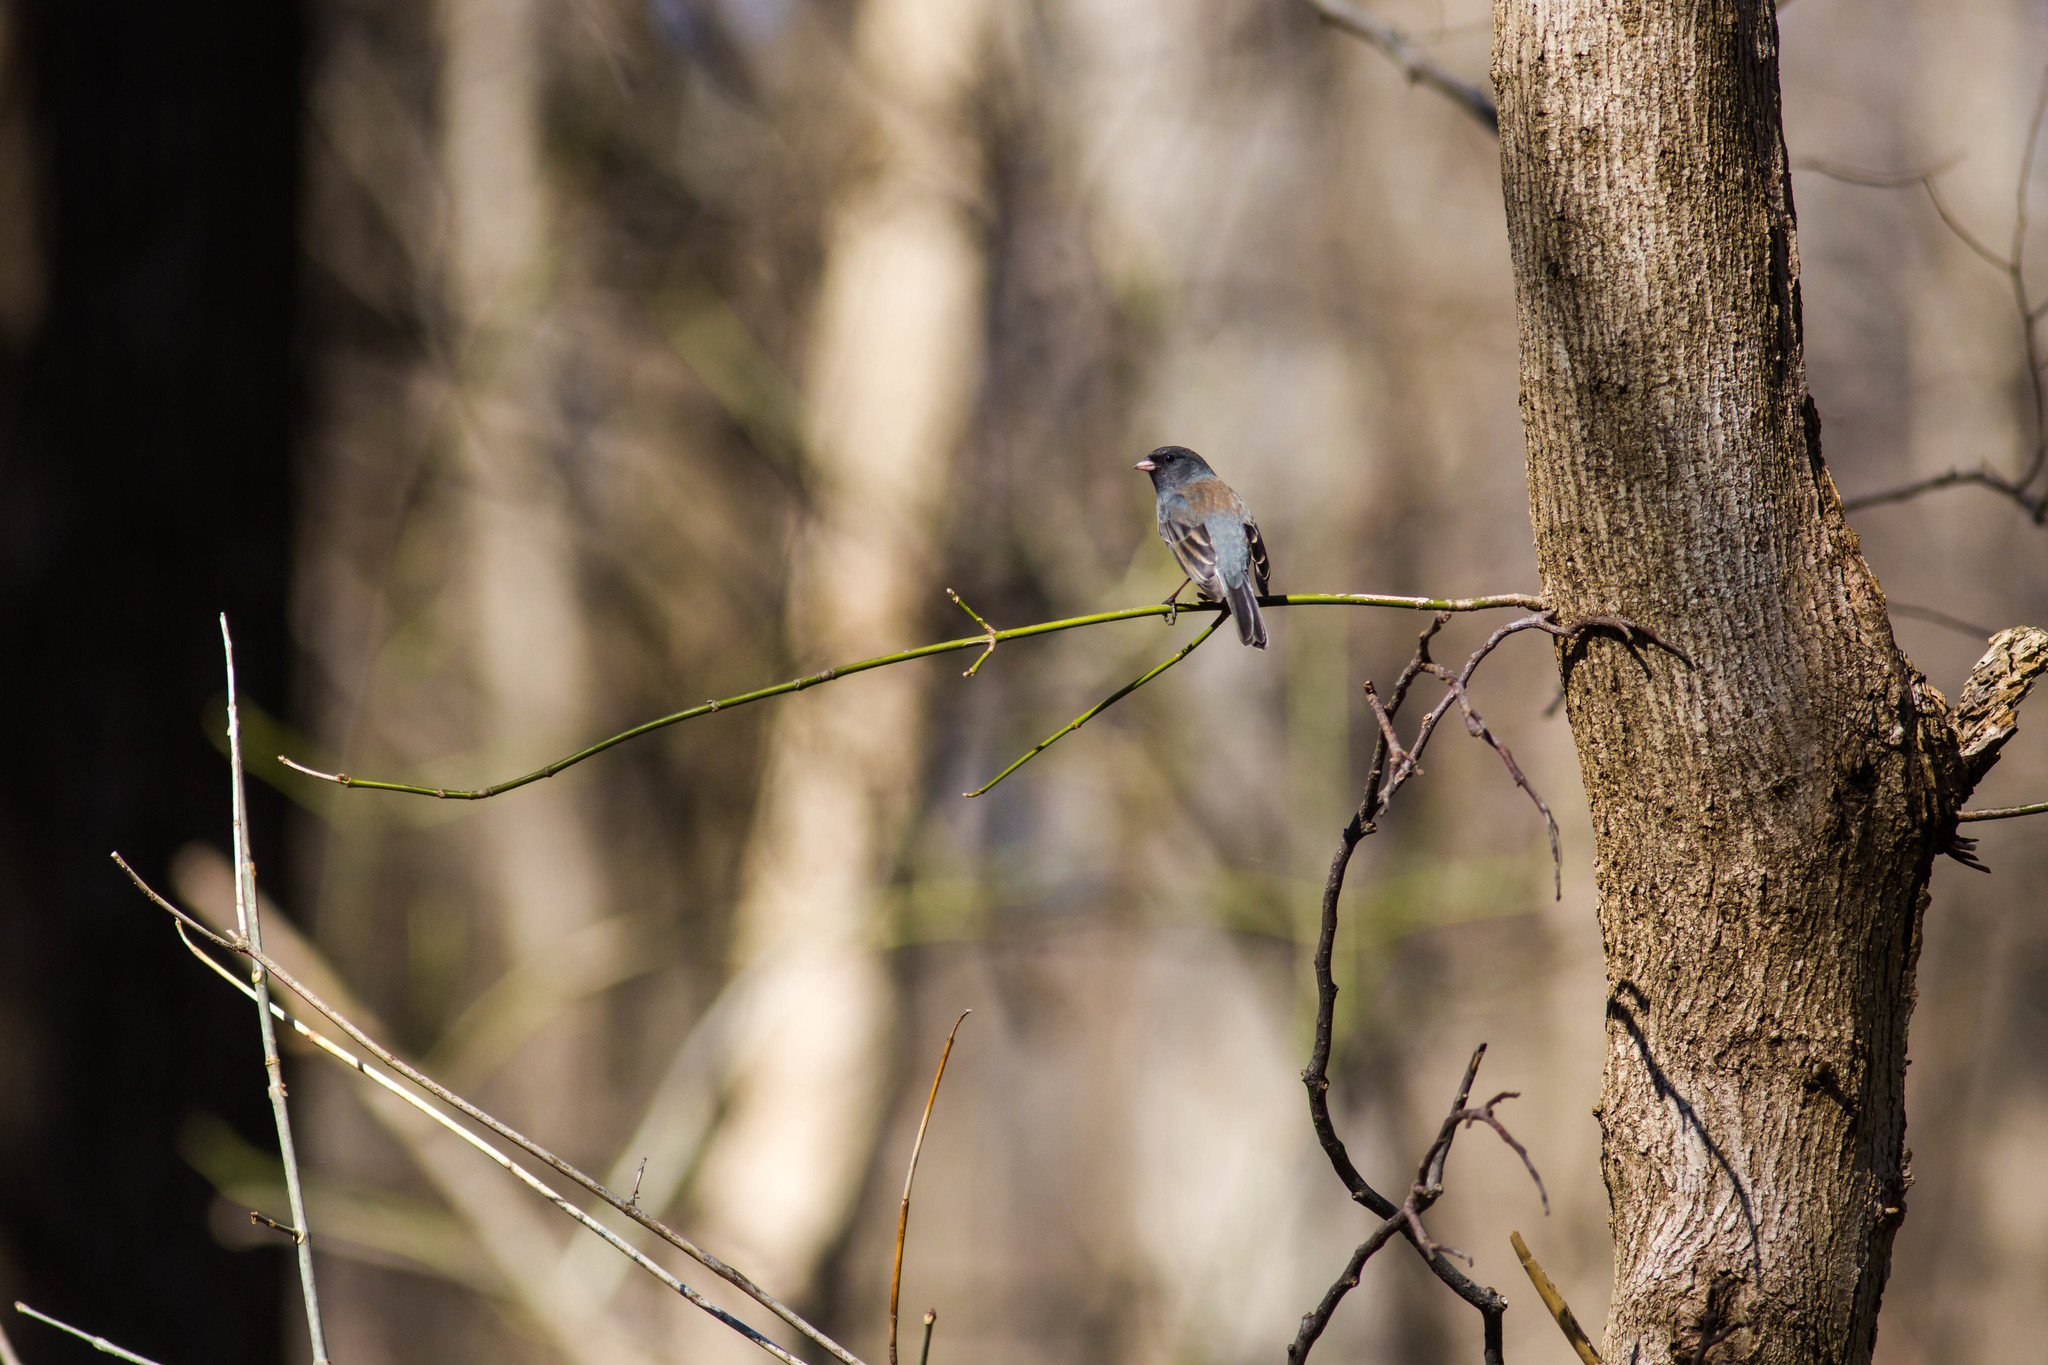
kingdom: Animalia
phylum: Chordata
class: Aves
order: Passeriformes
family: Passerellidae
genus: Junco
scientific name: Junco hyemalis
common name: Dark-eyed junco
